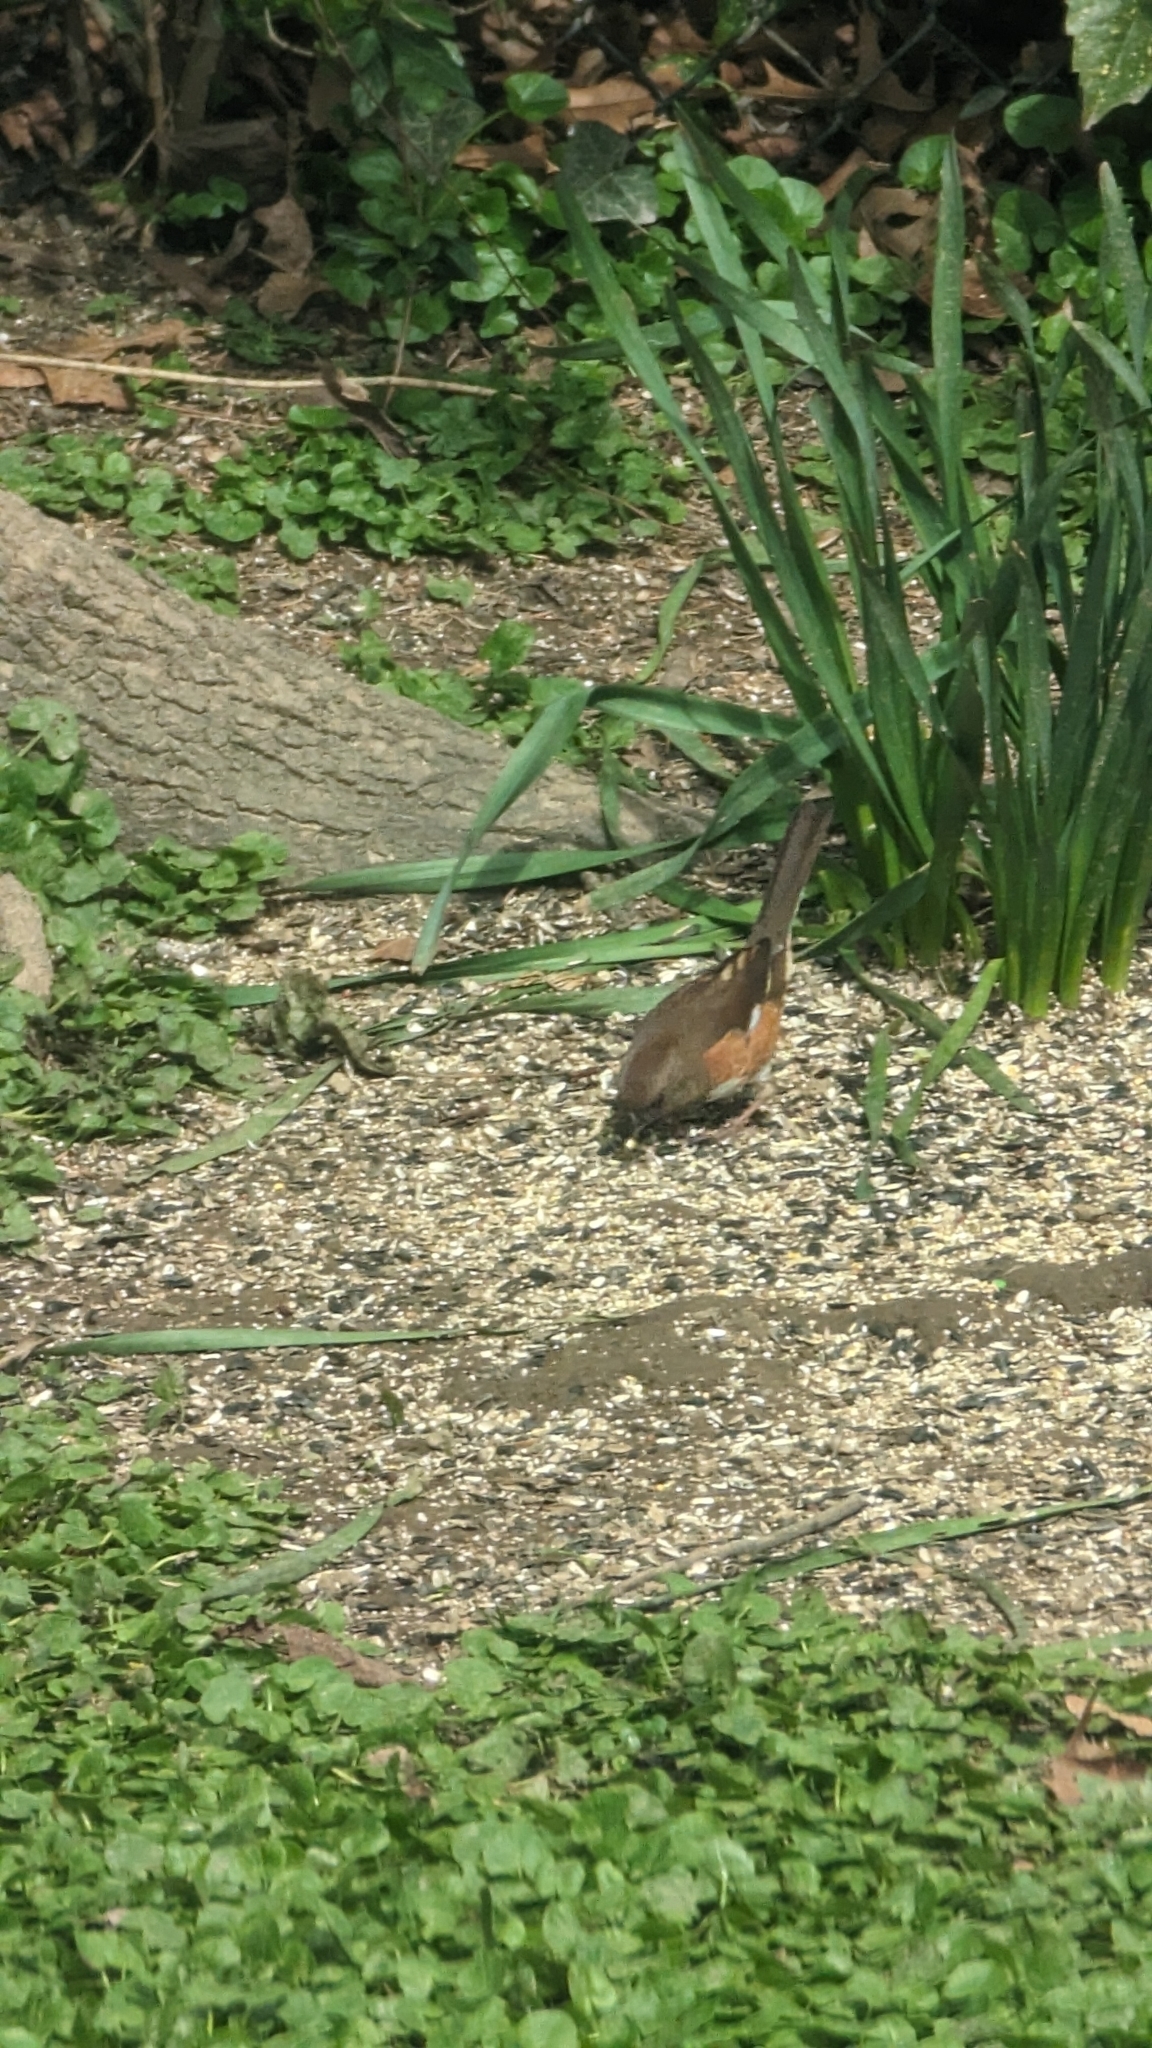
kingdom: Animalia
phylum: Chordata
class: Aves
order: Passeriformes
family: Passerellidae
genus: Pipilo
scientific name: Pipilo erythrophthalmus
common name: Eastern towhee
